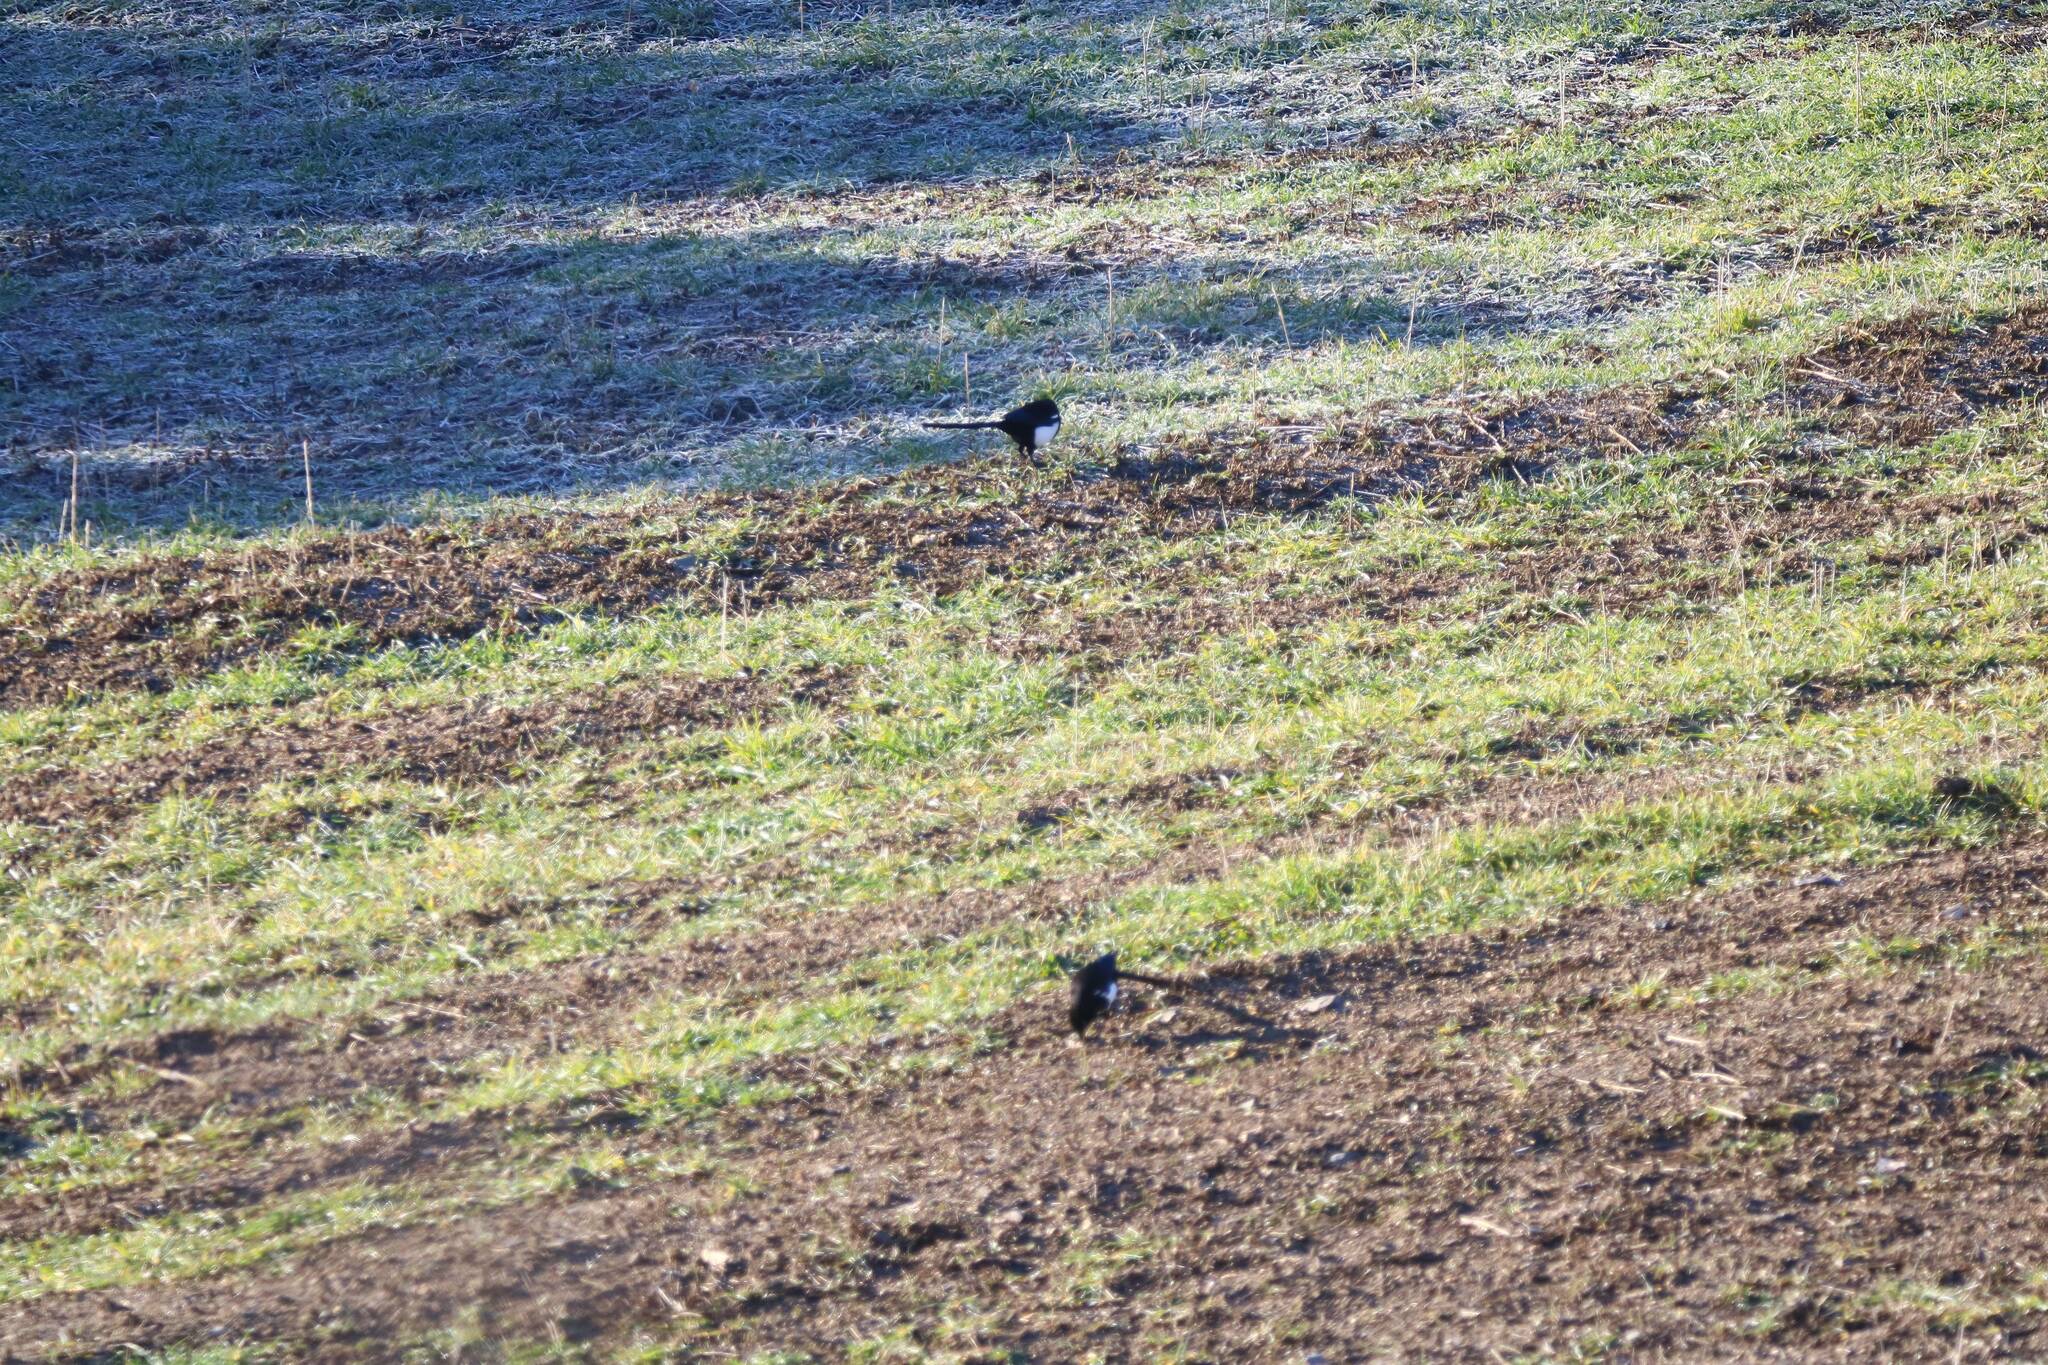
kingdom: Animalia
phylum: Chordata
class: Aves
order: Passeriformes
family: Corvidae
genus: Pica
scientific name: Pica mauritanica
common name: Maghreb magpie
